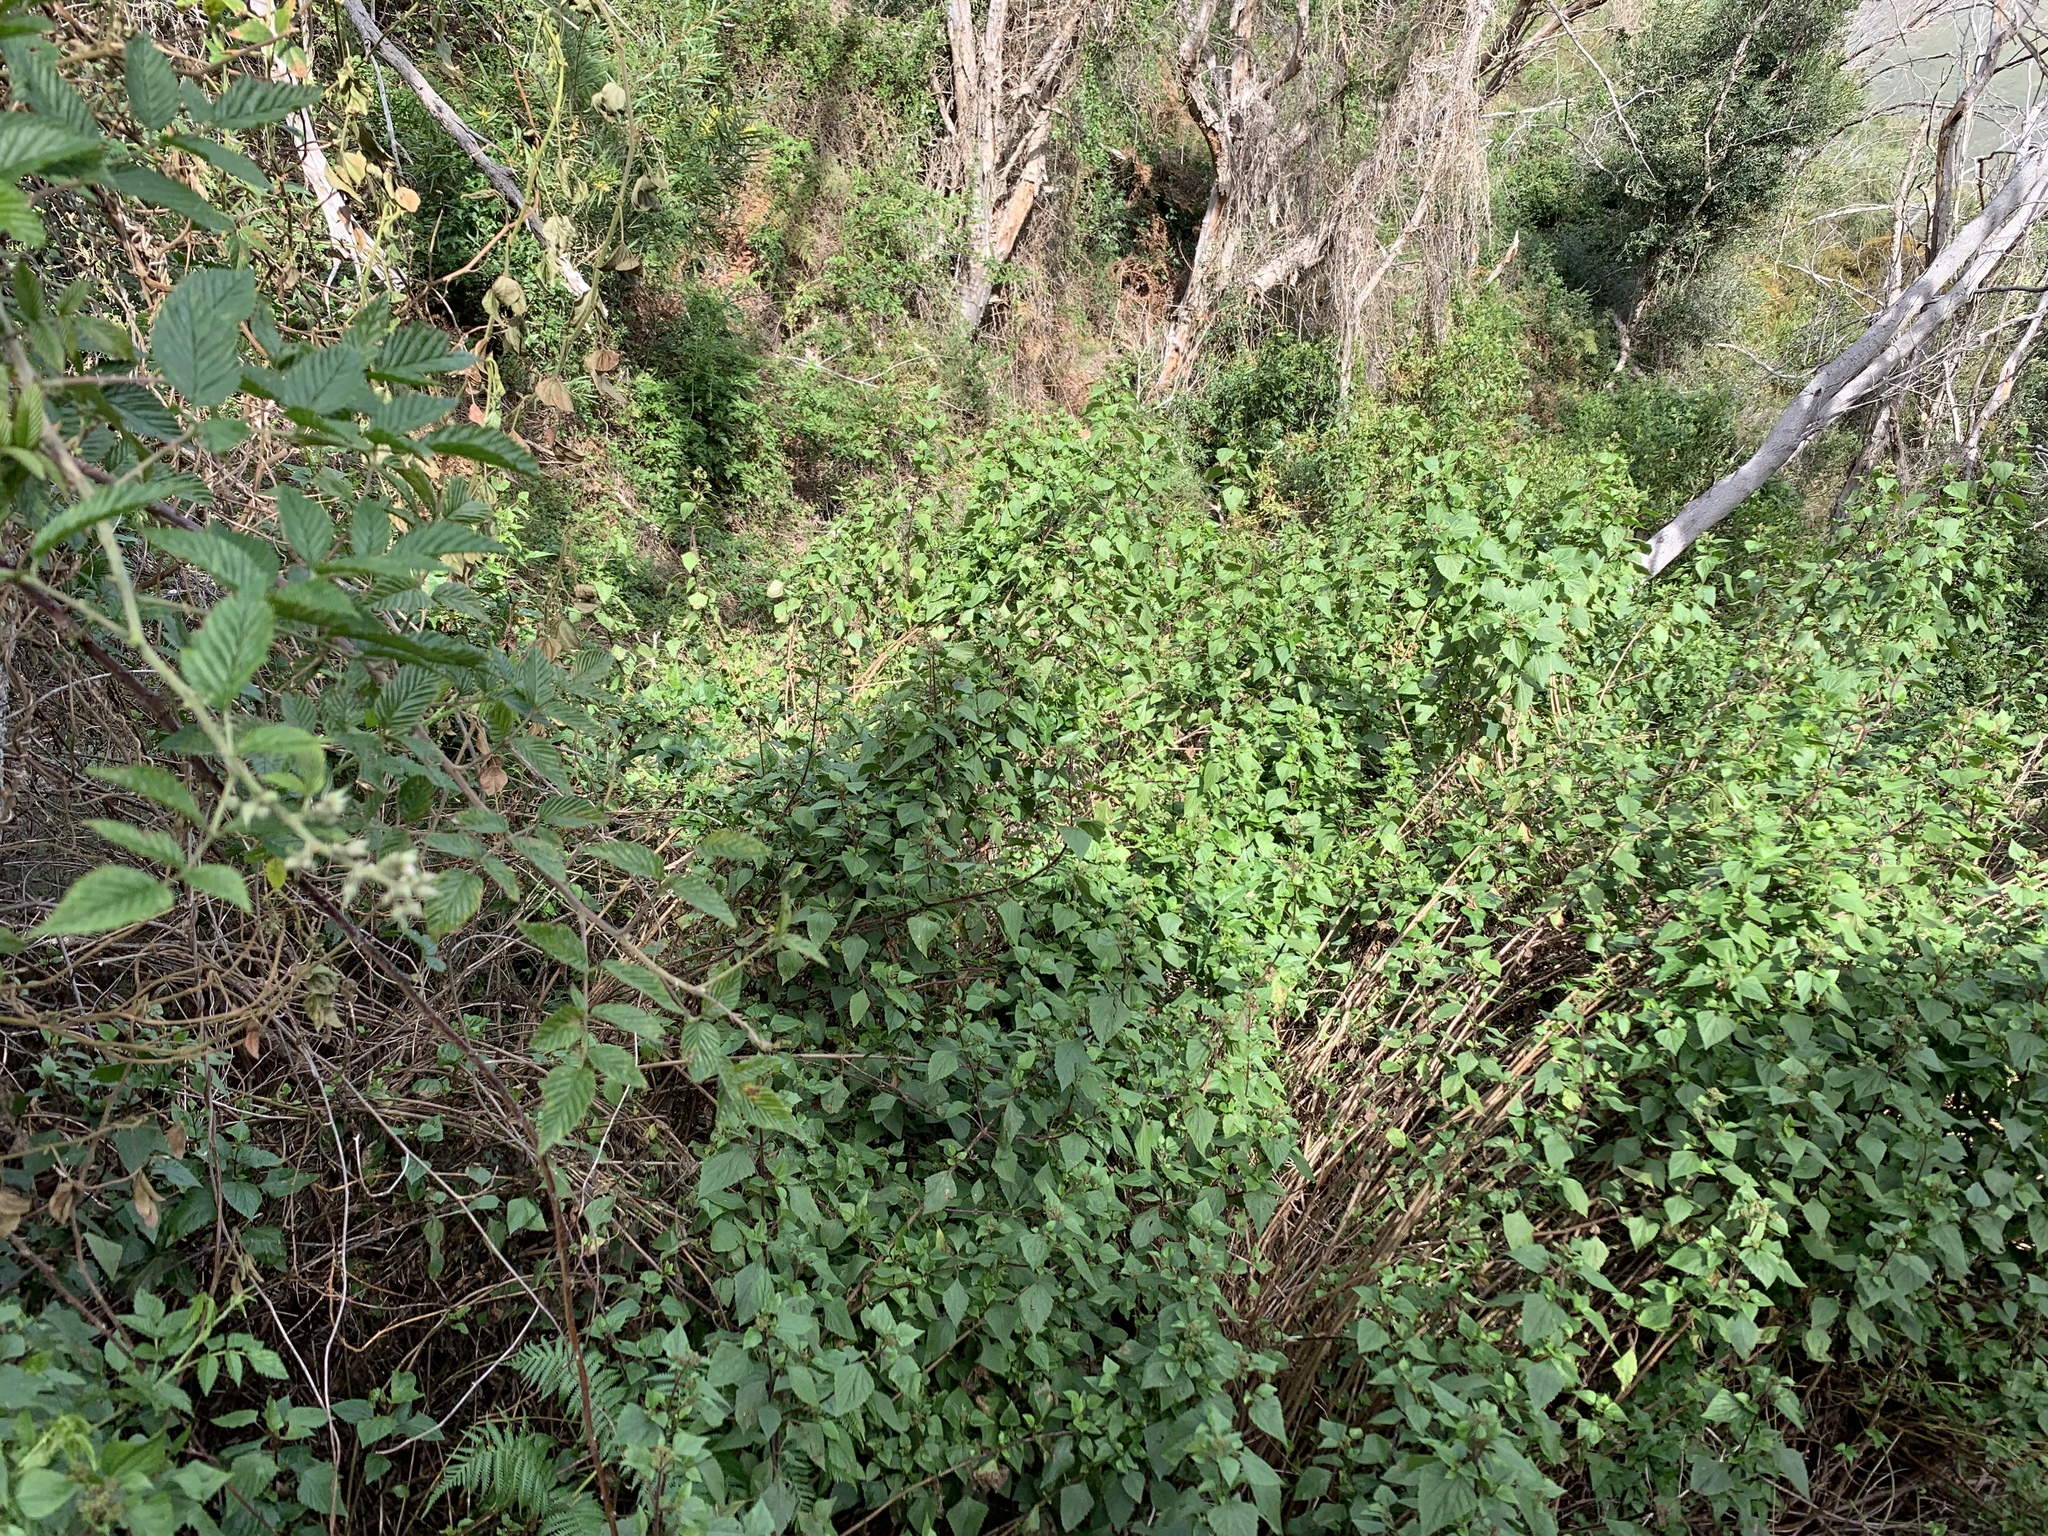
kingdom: Plantae
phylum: Tracheophyta
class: Magnoliopsida
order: Asterales
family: Asteraceae
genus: Ageratina
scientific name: Ageratina adenophora
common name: Sticky snakeroot
